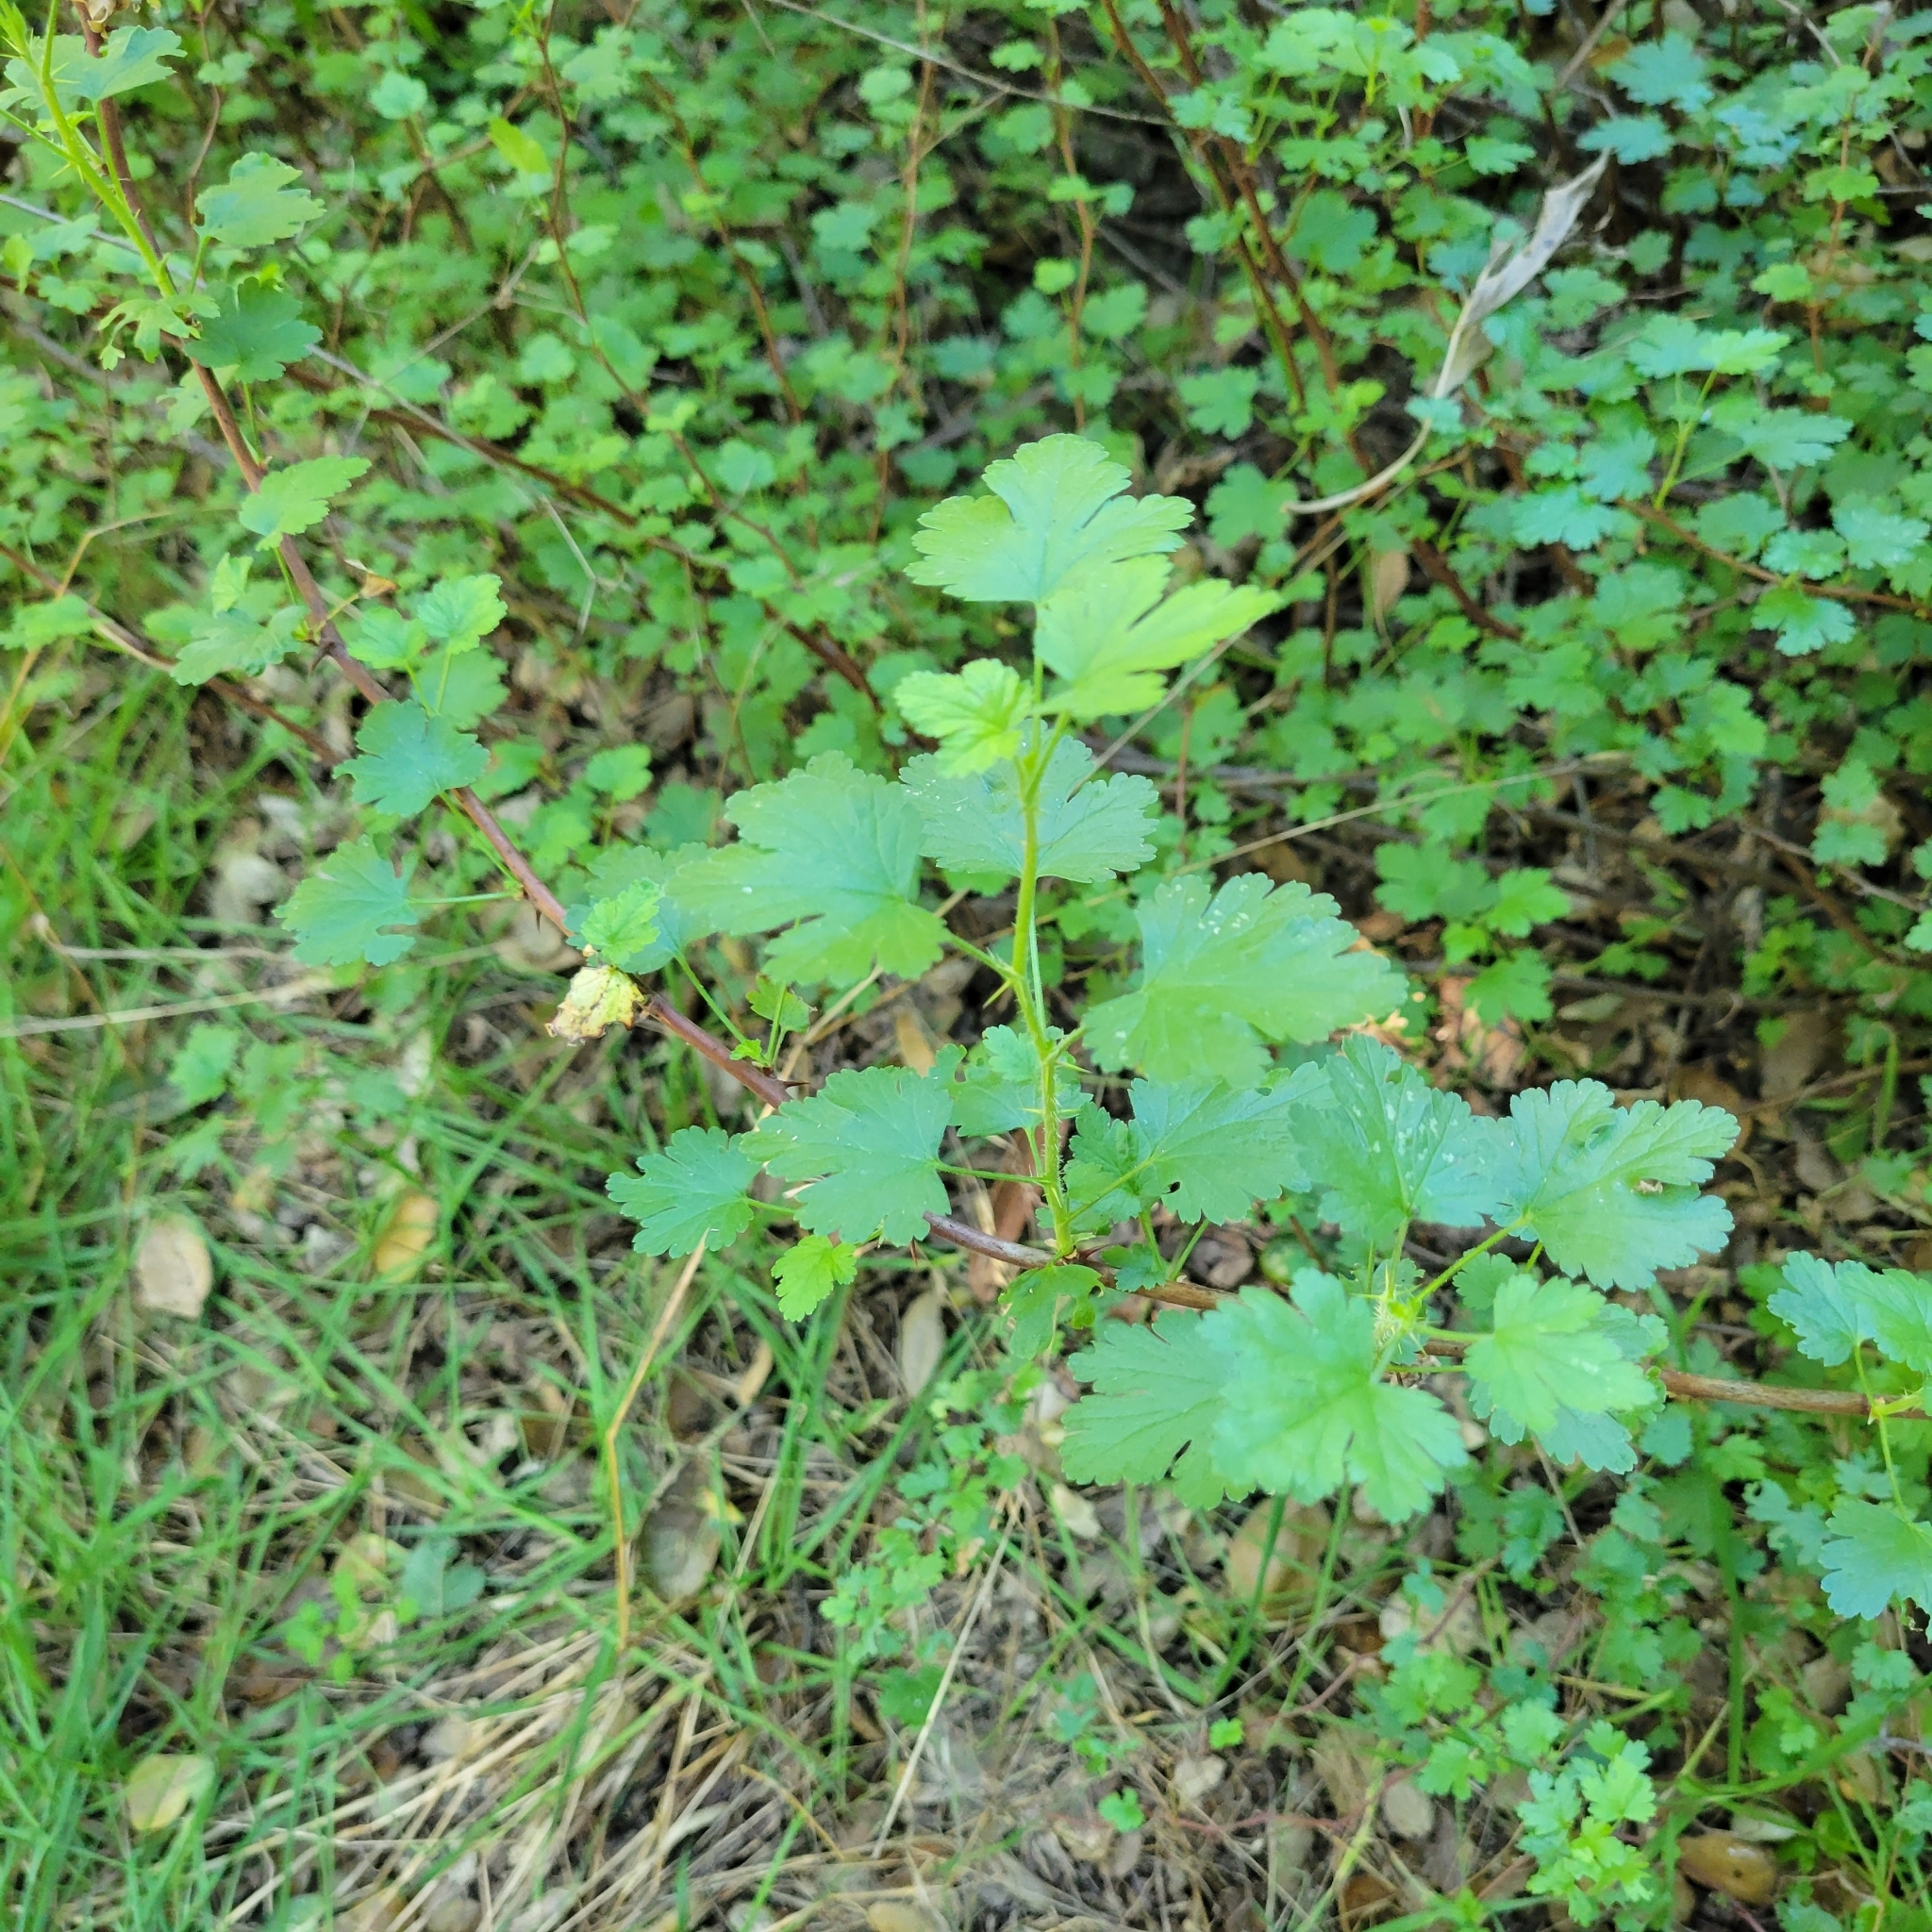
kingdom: Plantae
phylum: Tracheophyta
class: Magnoliopsida
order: Saxifragales
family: Grossulariaceae
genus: Ribes
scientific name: Ribes californicum
